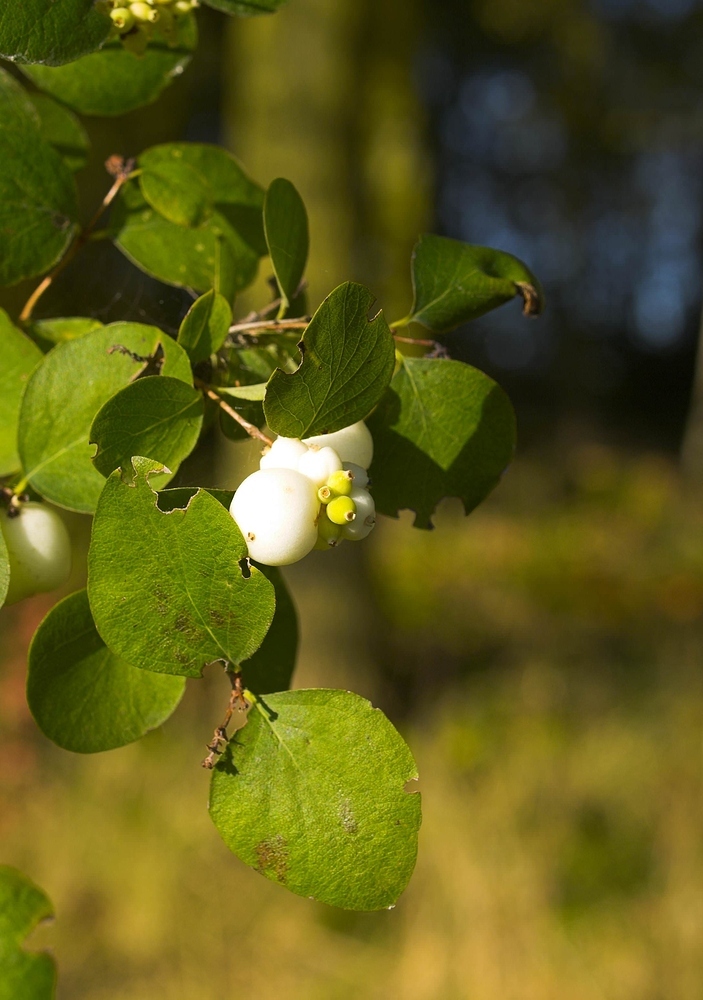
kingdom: Plantae
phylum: Tracheophyta
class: Magnoliopsida
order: Dipsacales
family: Caprifoliaceae
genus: Symphoricarpos
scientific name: Symphoricarpos albus
